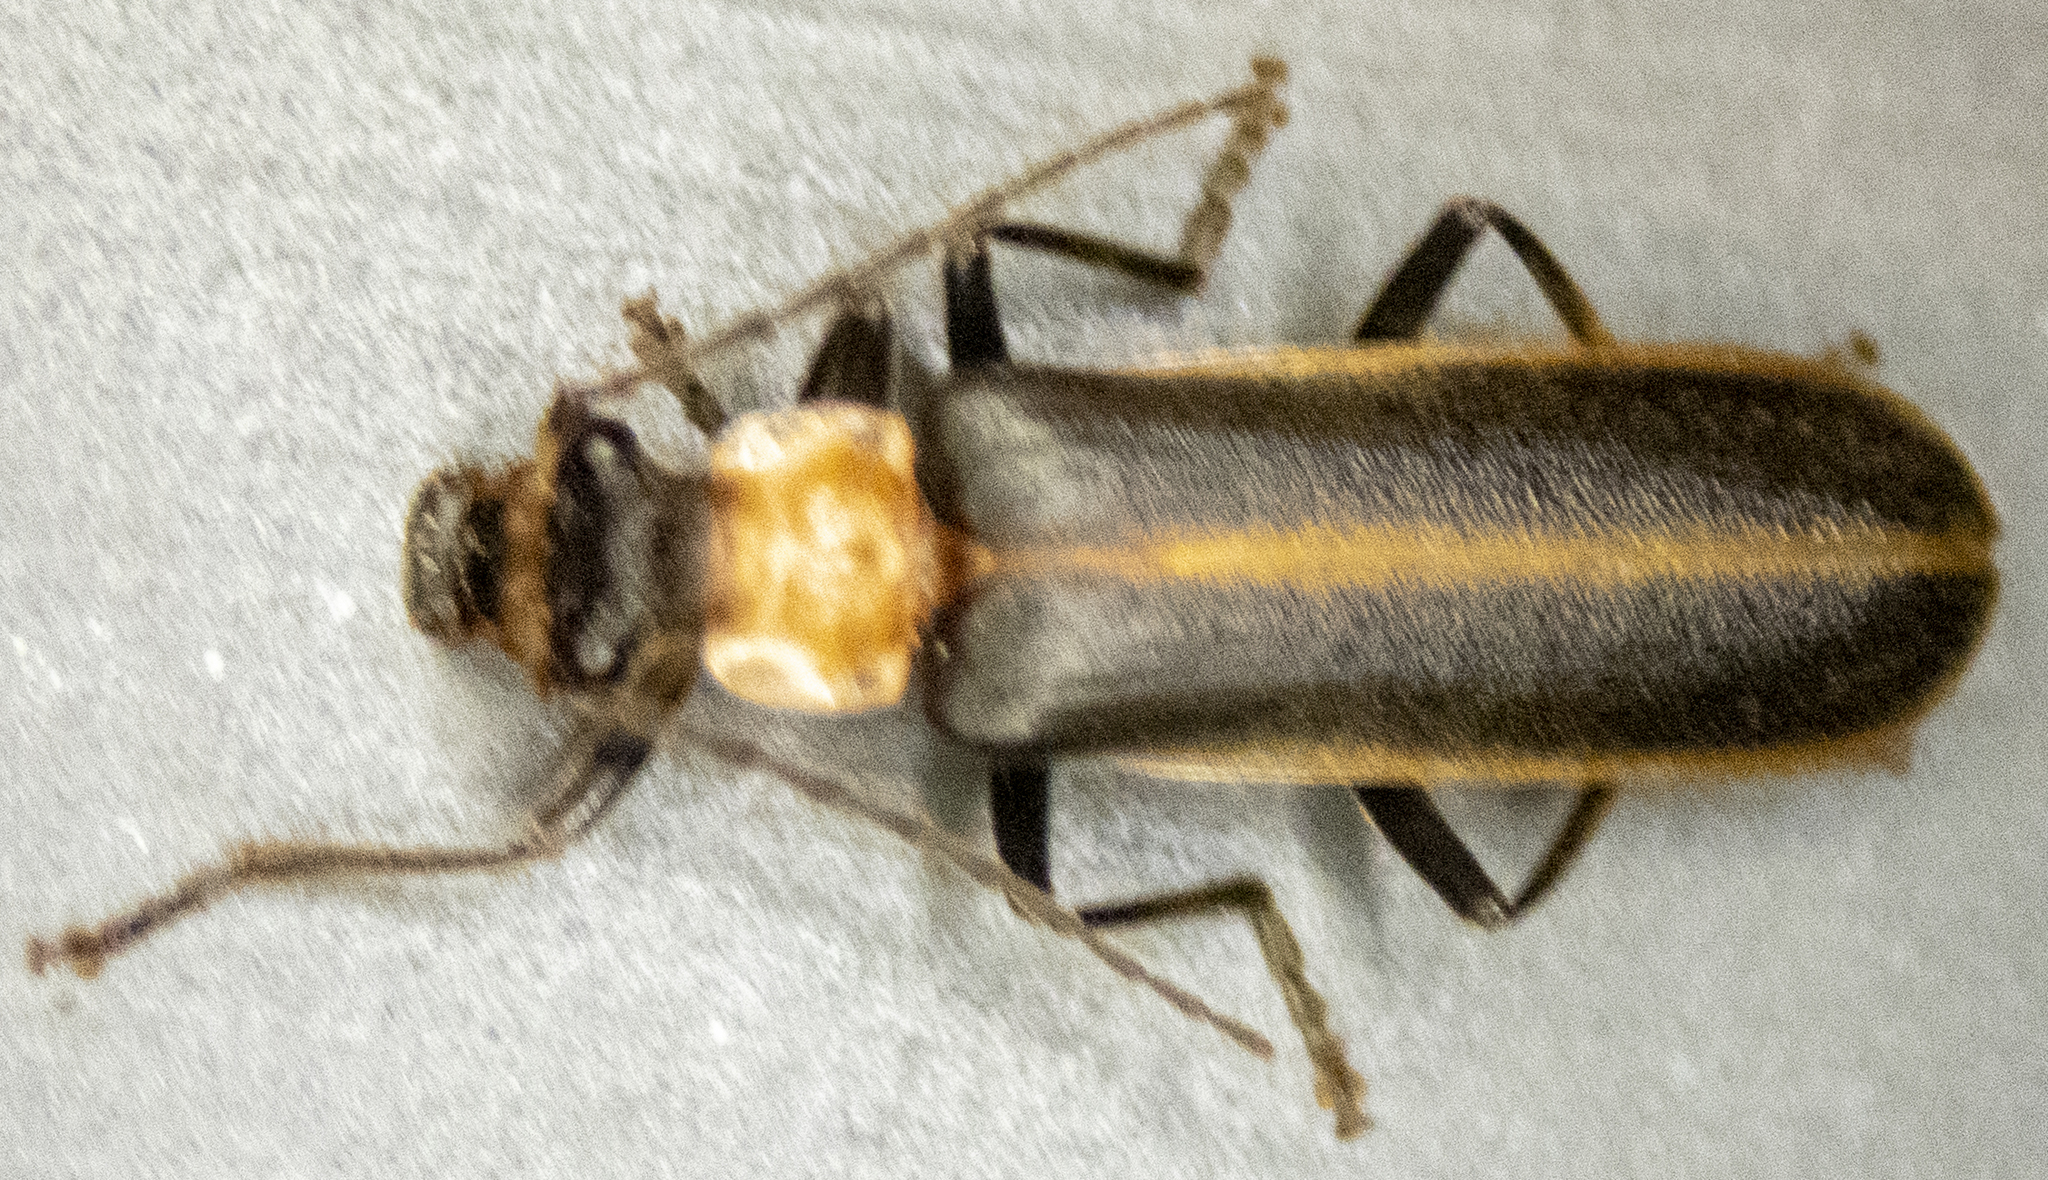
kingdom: Animalia
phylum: Arthropoda
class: Insecta
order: Coleoptera
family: Cantharidae
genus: Podabrus
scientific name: Podabrus flavicollis
